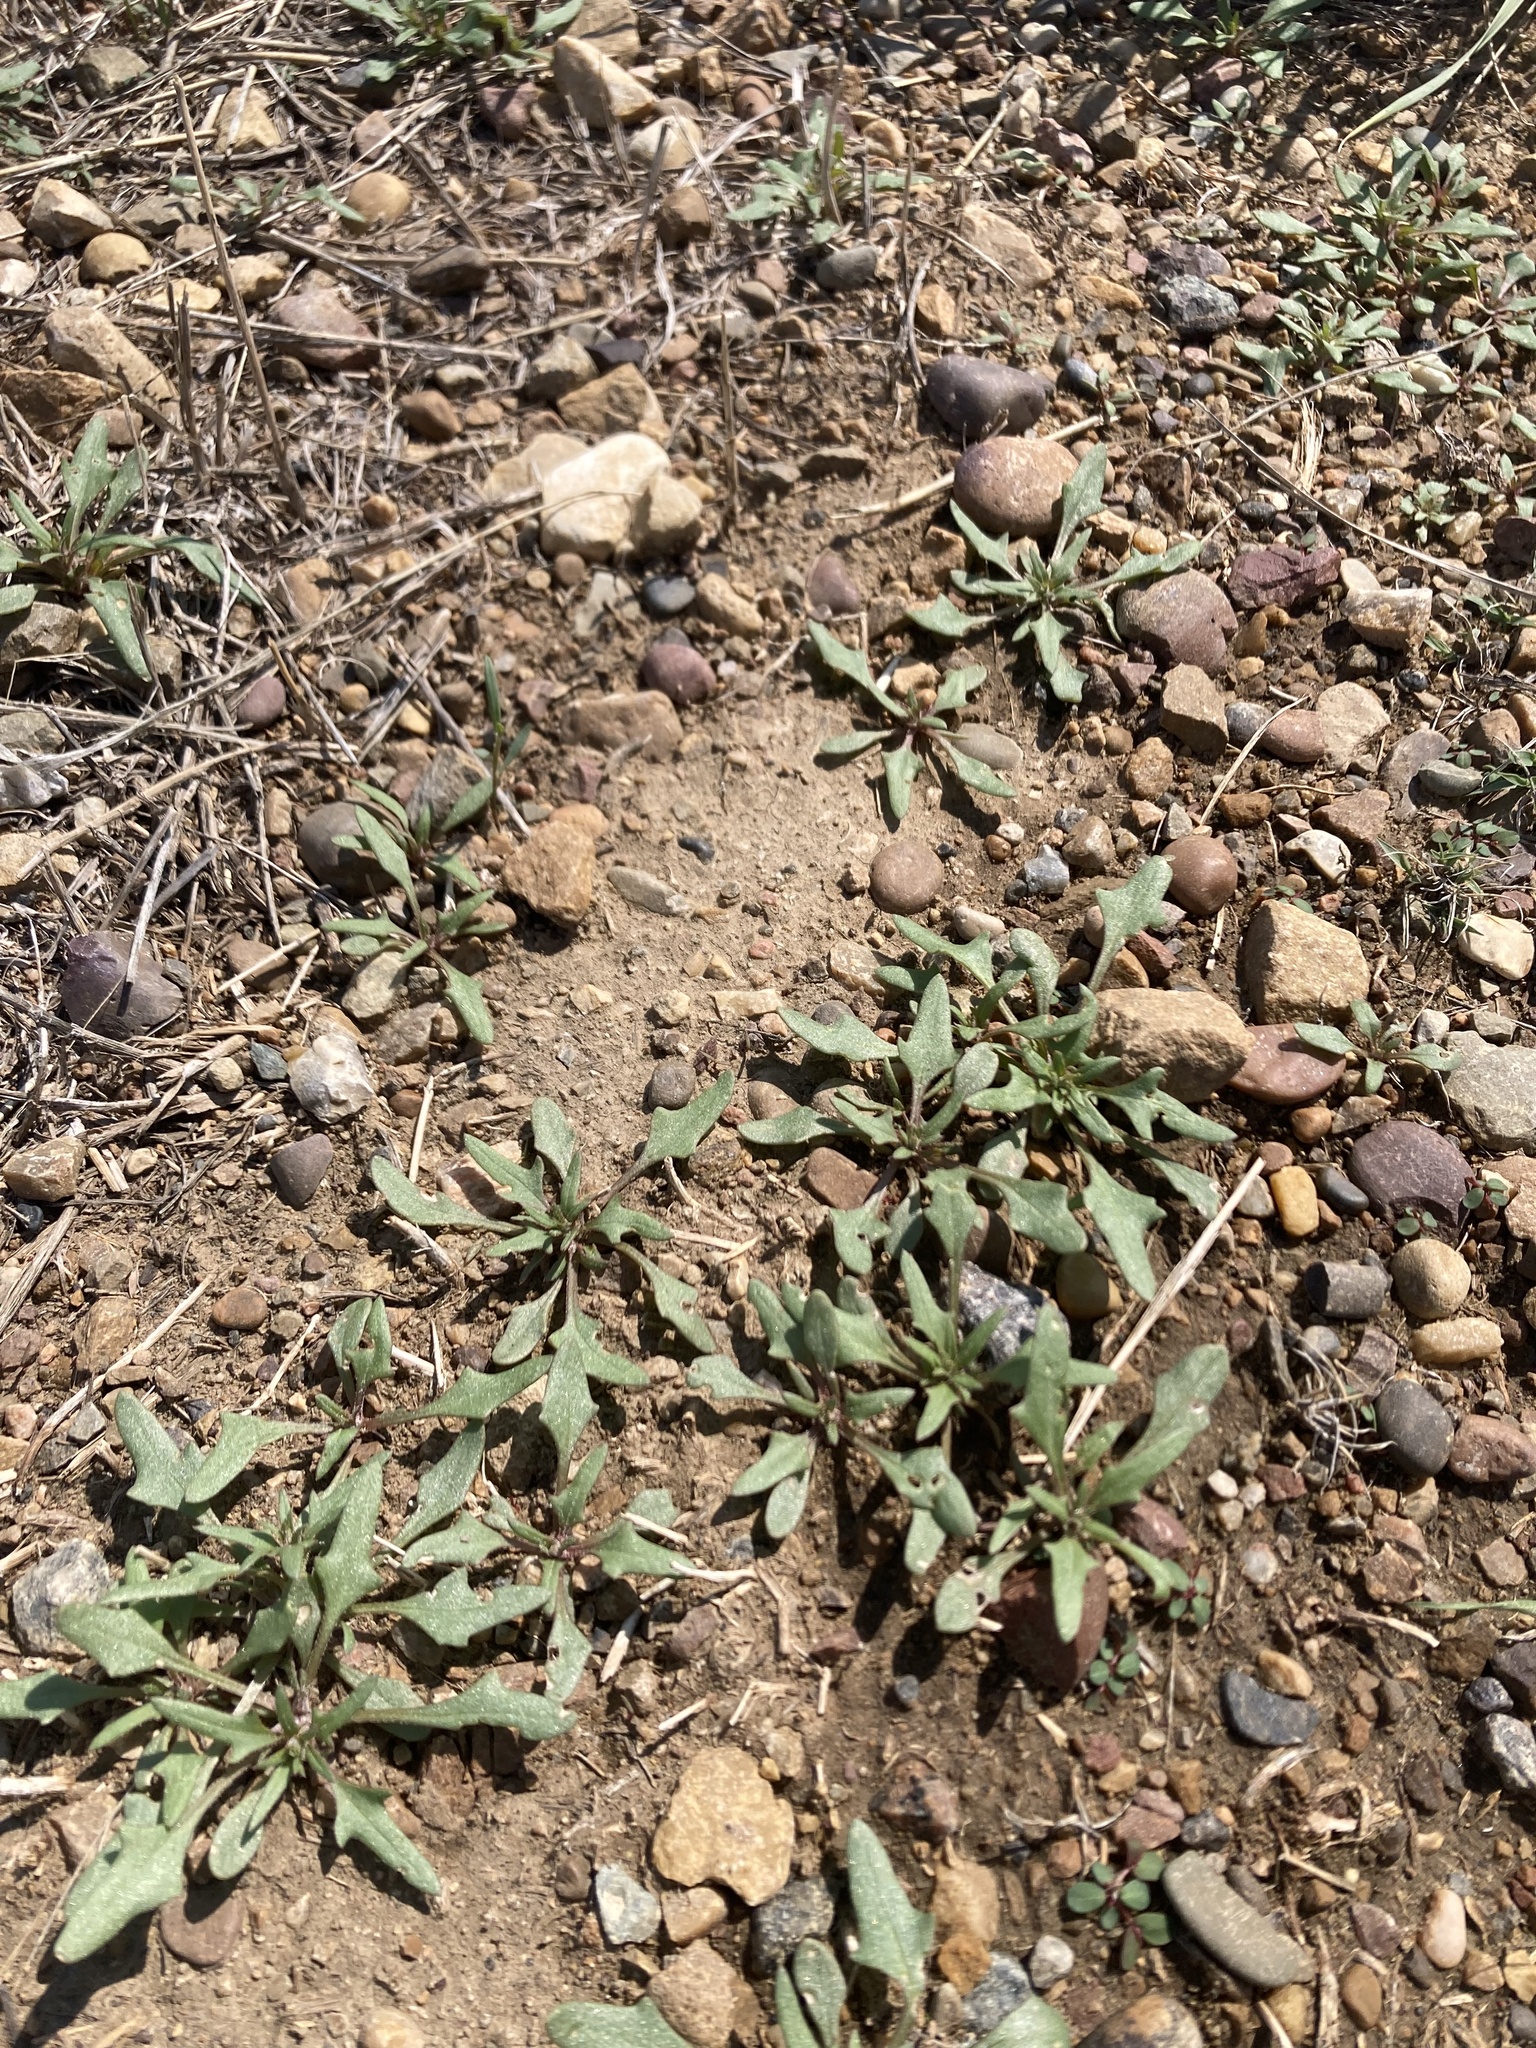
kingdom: Plantae
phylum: Tracheophyta
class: Magnoliopsida
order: Caryophyllales
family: Amaranthaceae
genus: Blitum
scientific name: Blitum nuttallianum
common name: Poverty-weed
